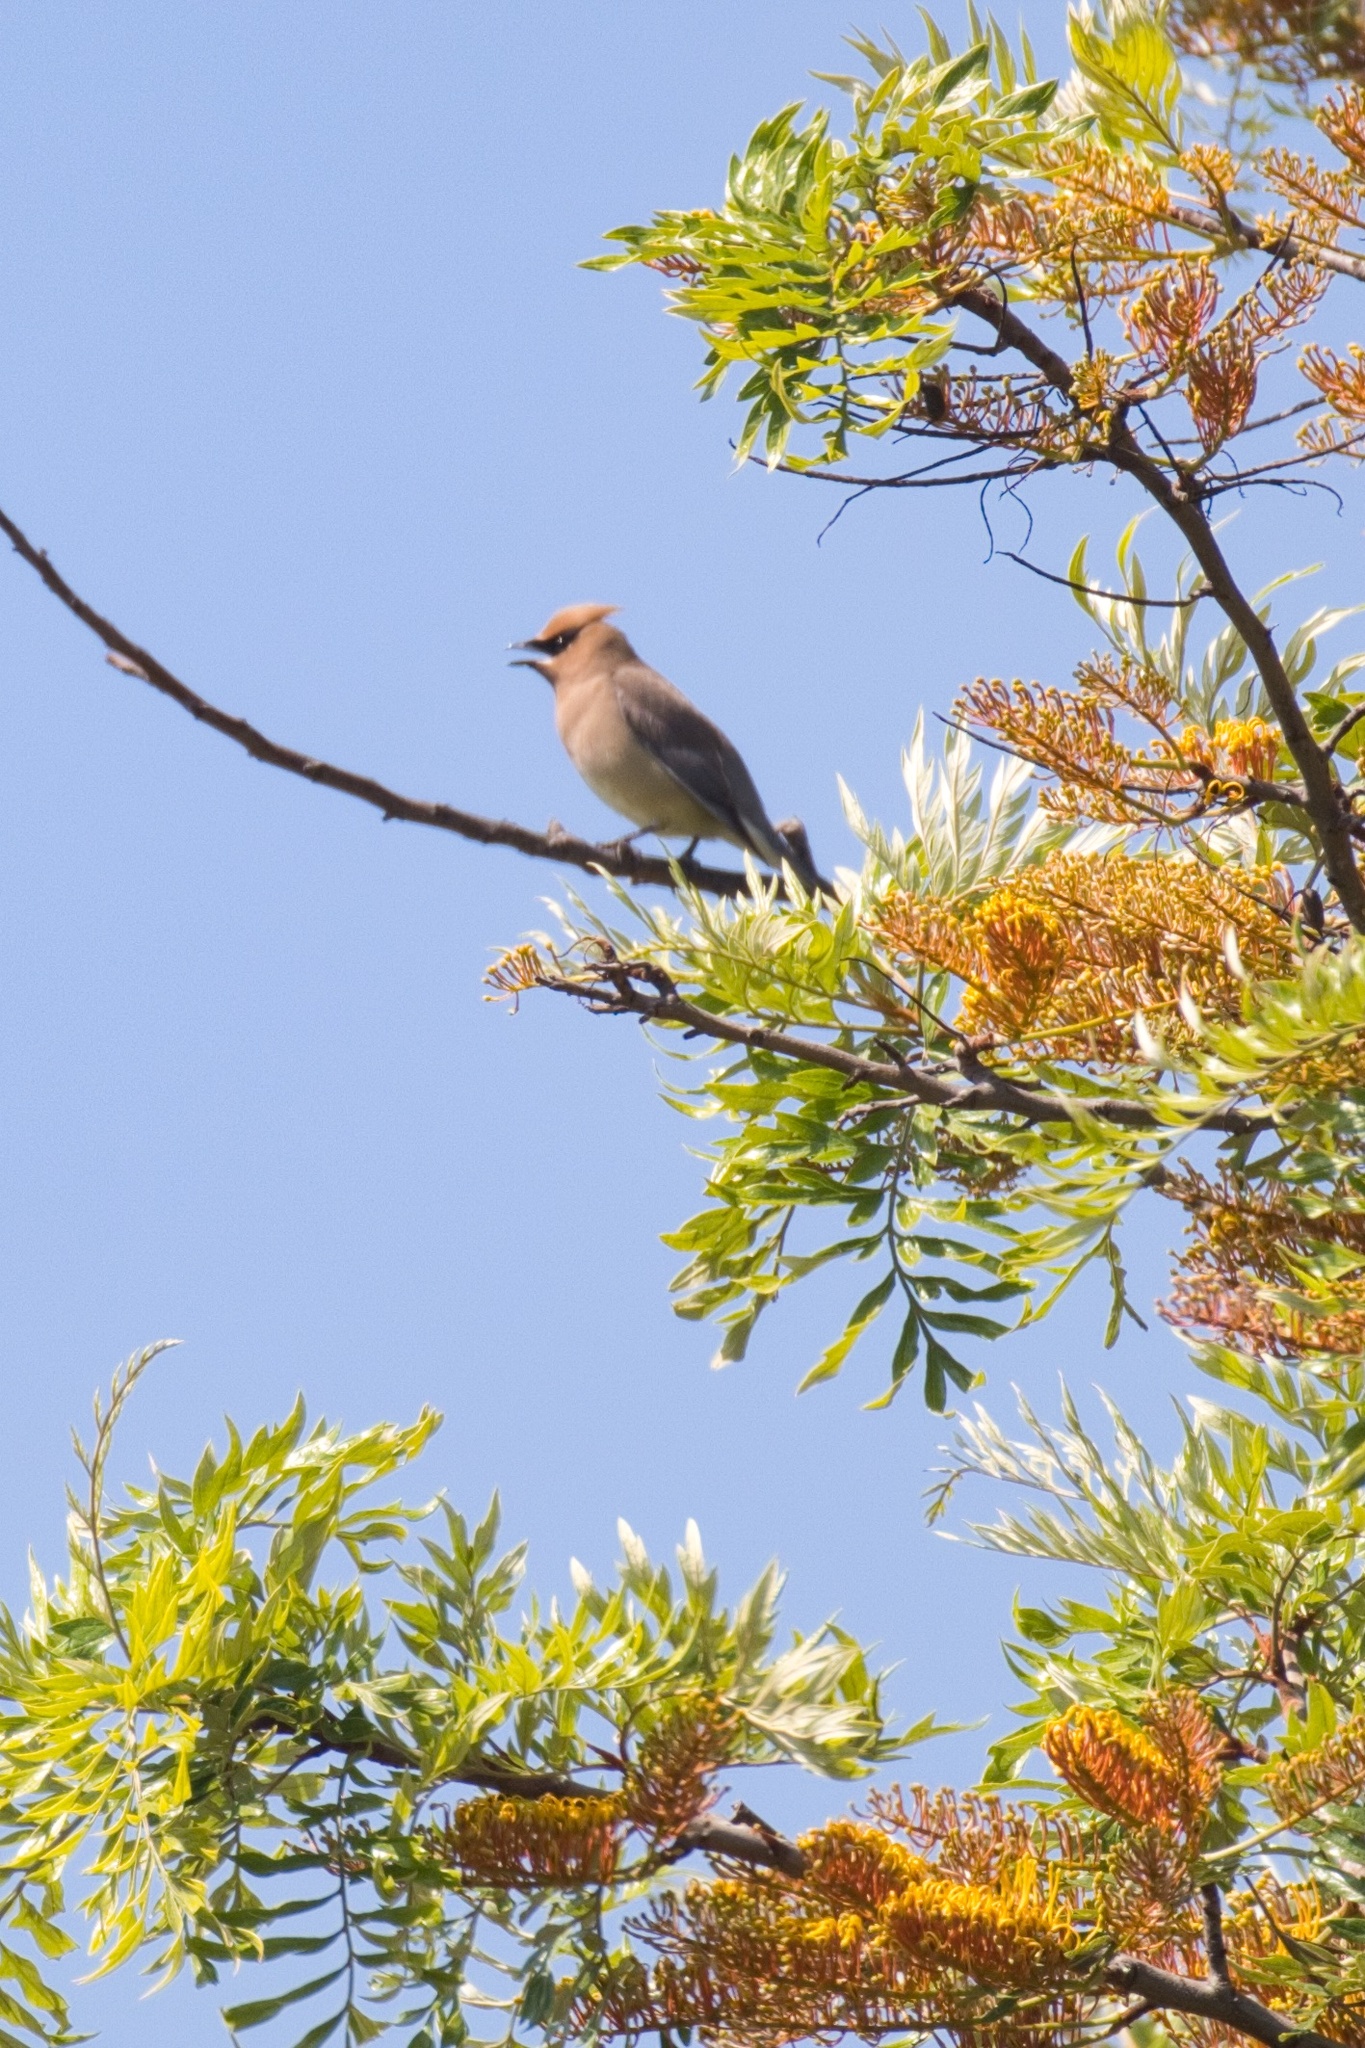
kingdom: Animalia
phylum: Chordata
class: Aves
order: Passeriformes
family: Bombycillidae
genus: Bombycilla
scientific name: Bombycilla cedrorum
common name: Cedar waxwing
